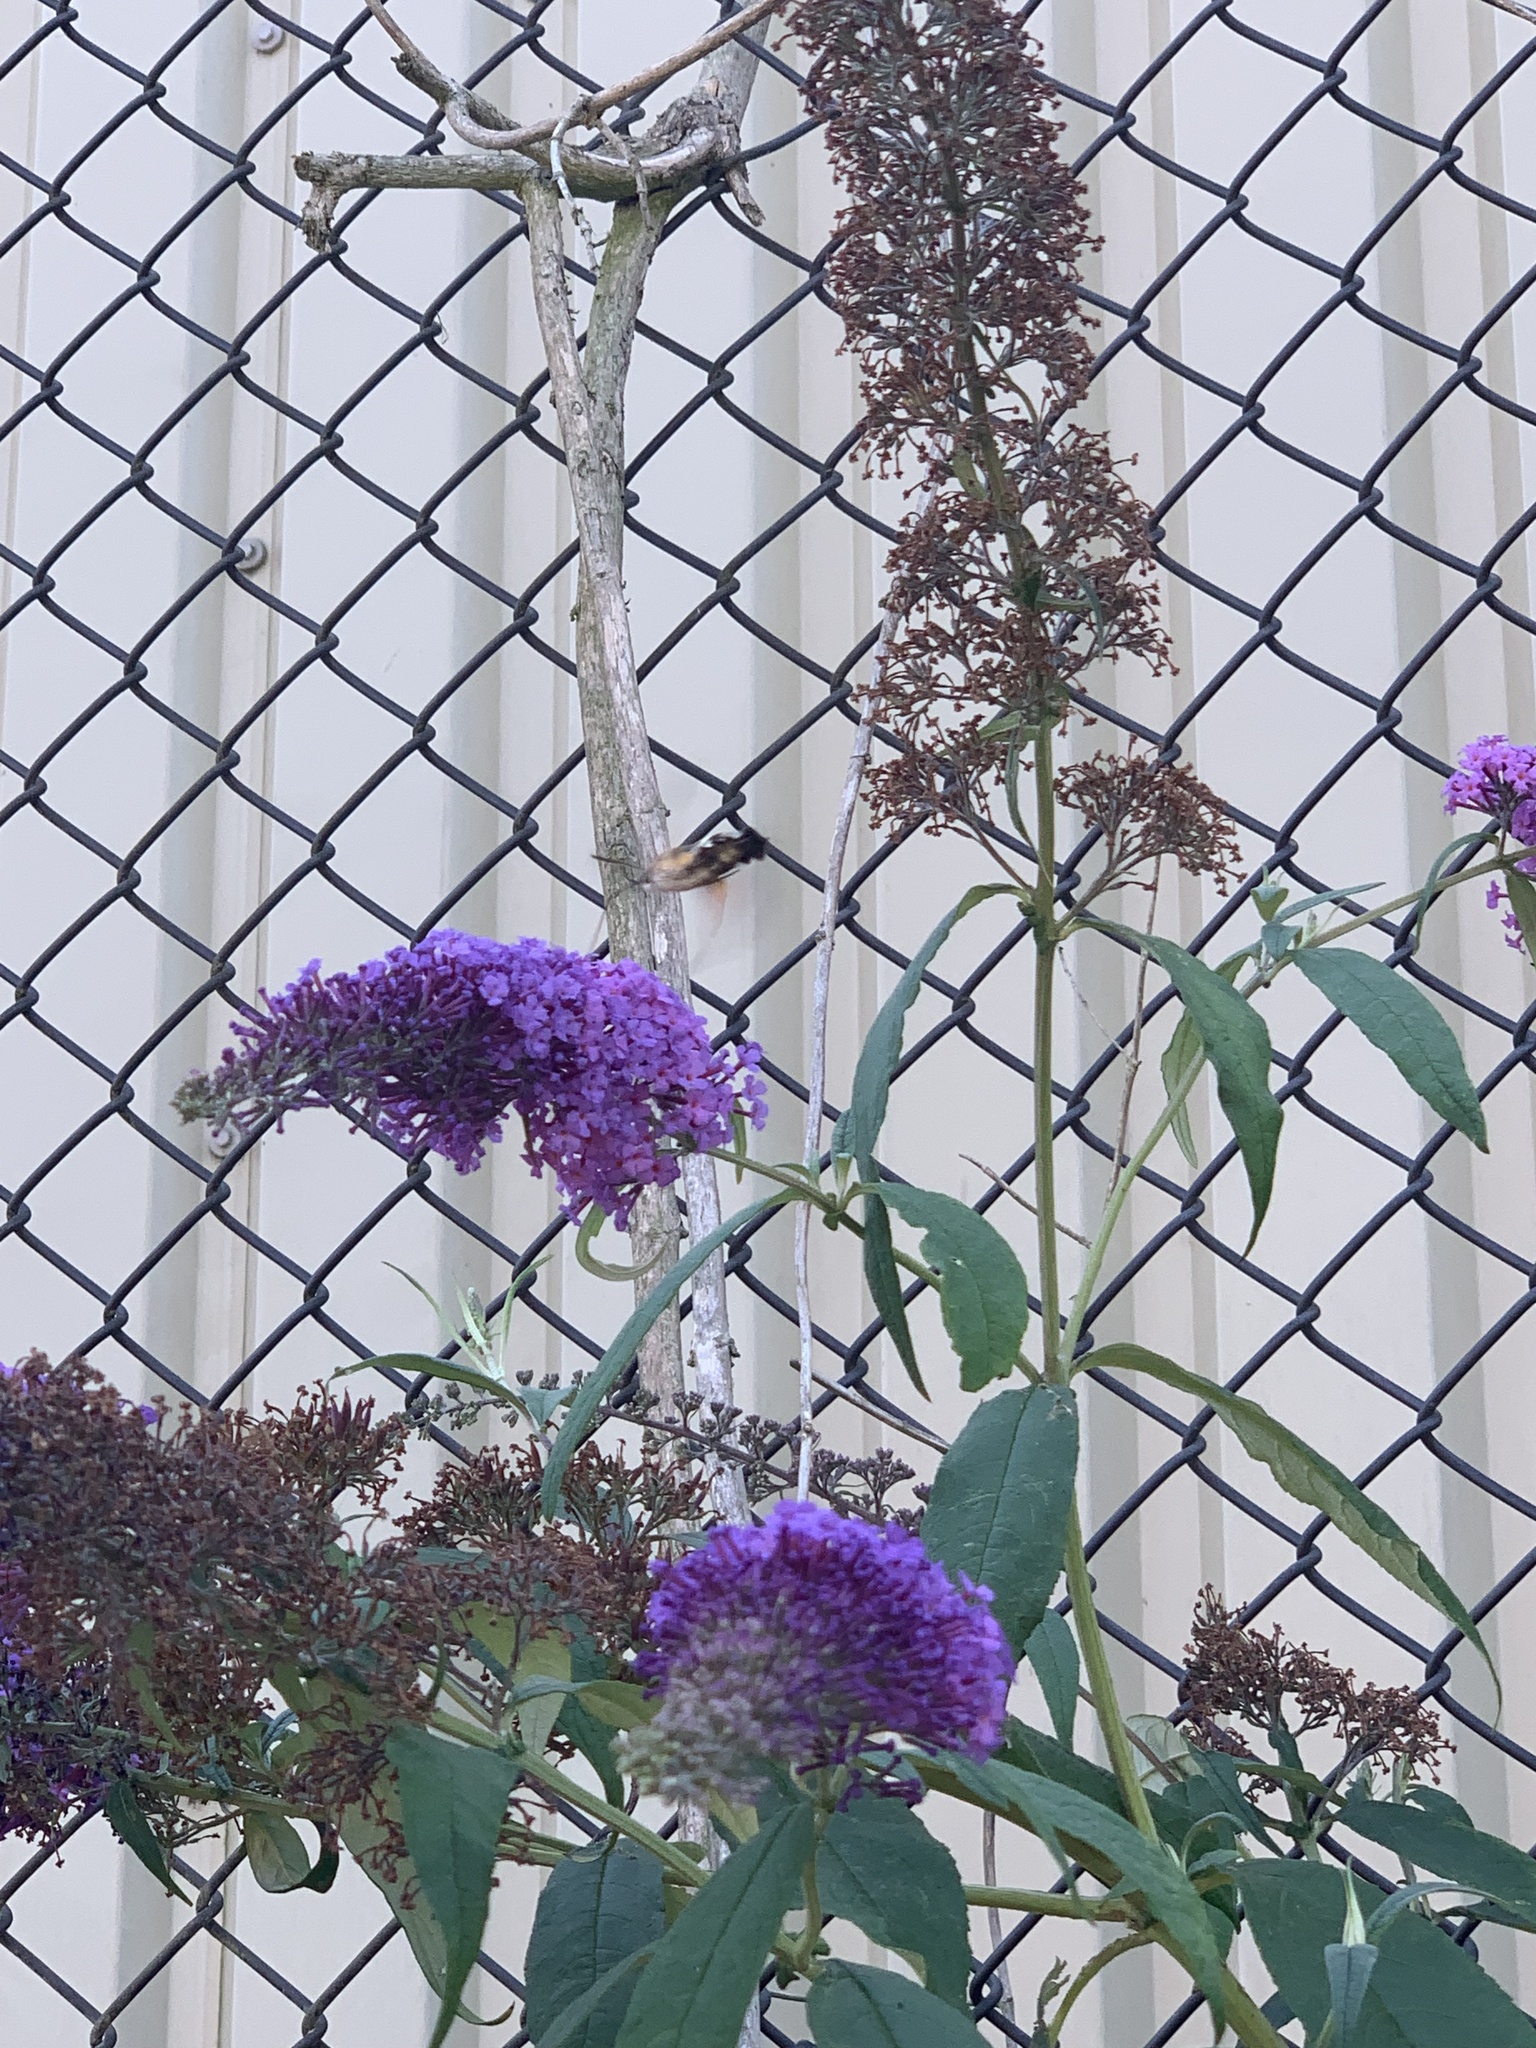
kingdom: Animalia
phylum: Arthropoda
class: Insecta
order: Lepidoptera
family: Sphingidae
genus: Macroglossum
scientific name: Macroglossum stellatarum
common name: Humming-bird hawk-moth
